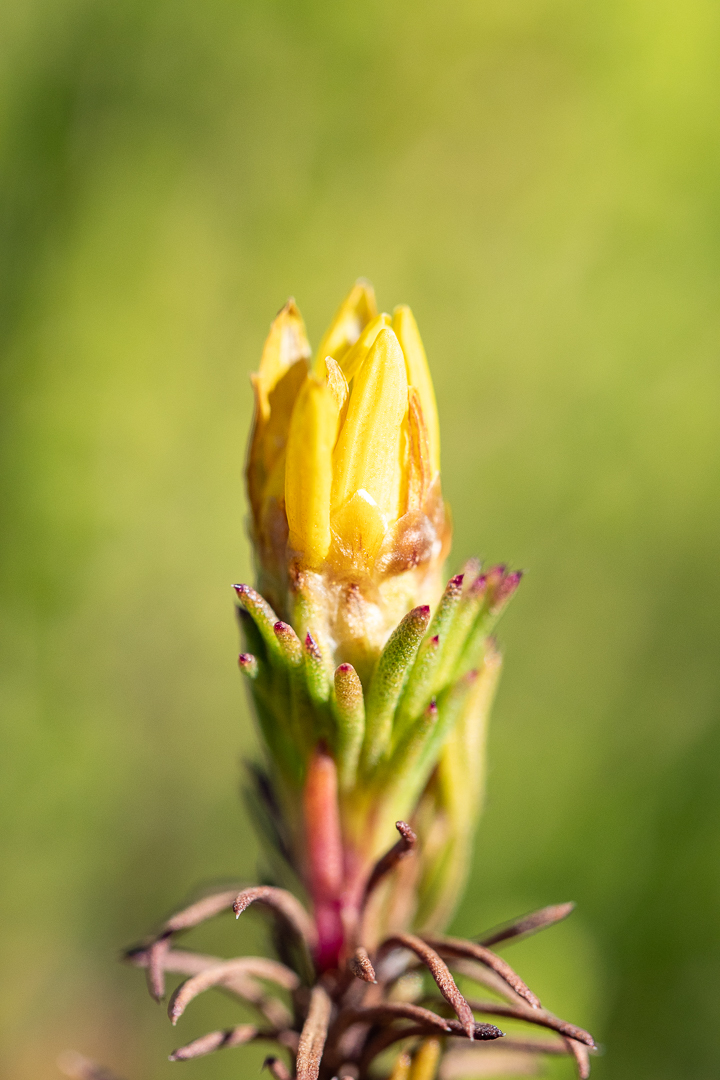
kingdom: Plantae
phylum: Tracheophyta
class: Magnoliopsida
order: Asterales
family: Asteraceae
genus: Ursinia
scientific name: Ursinia quinquepartita
